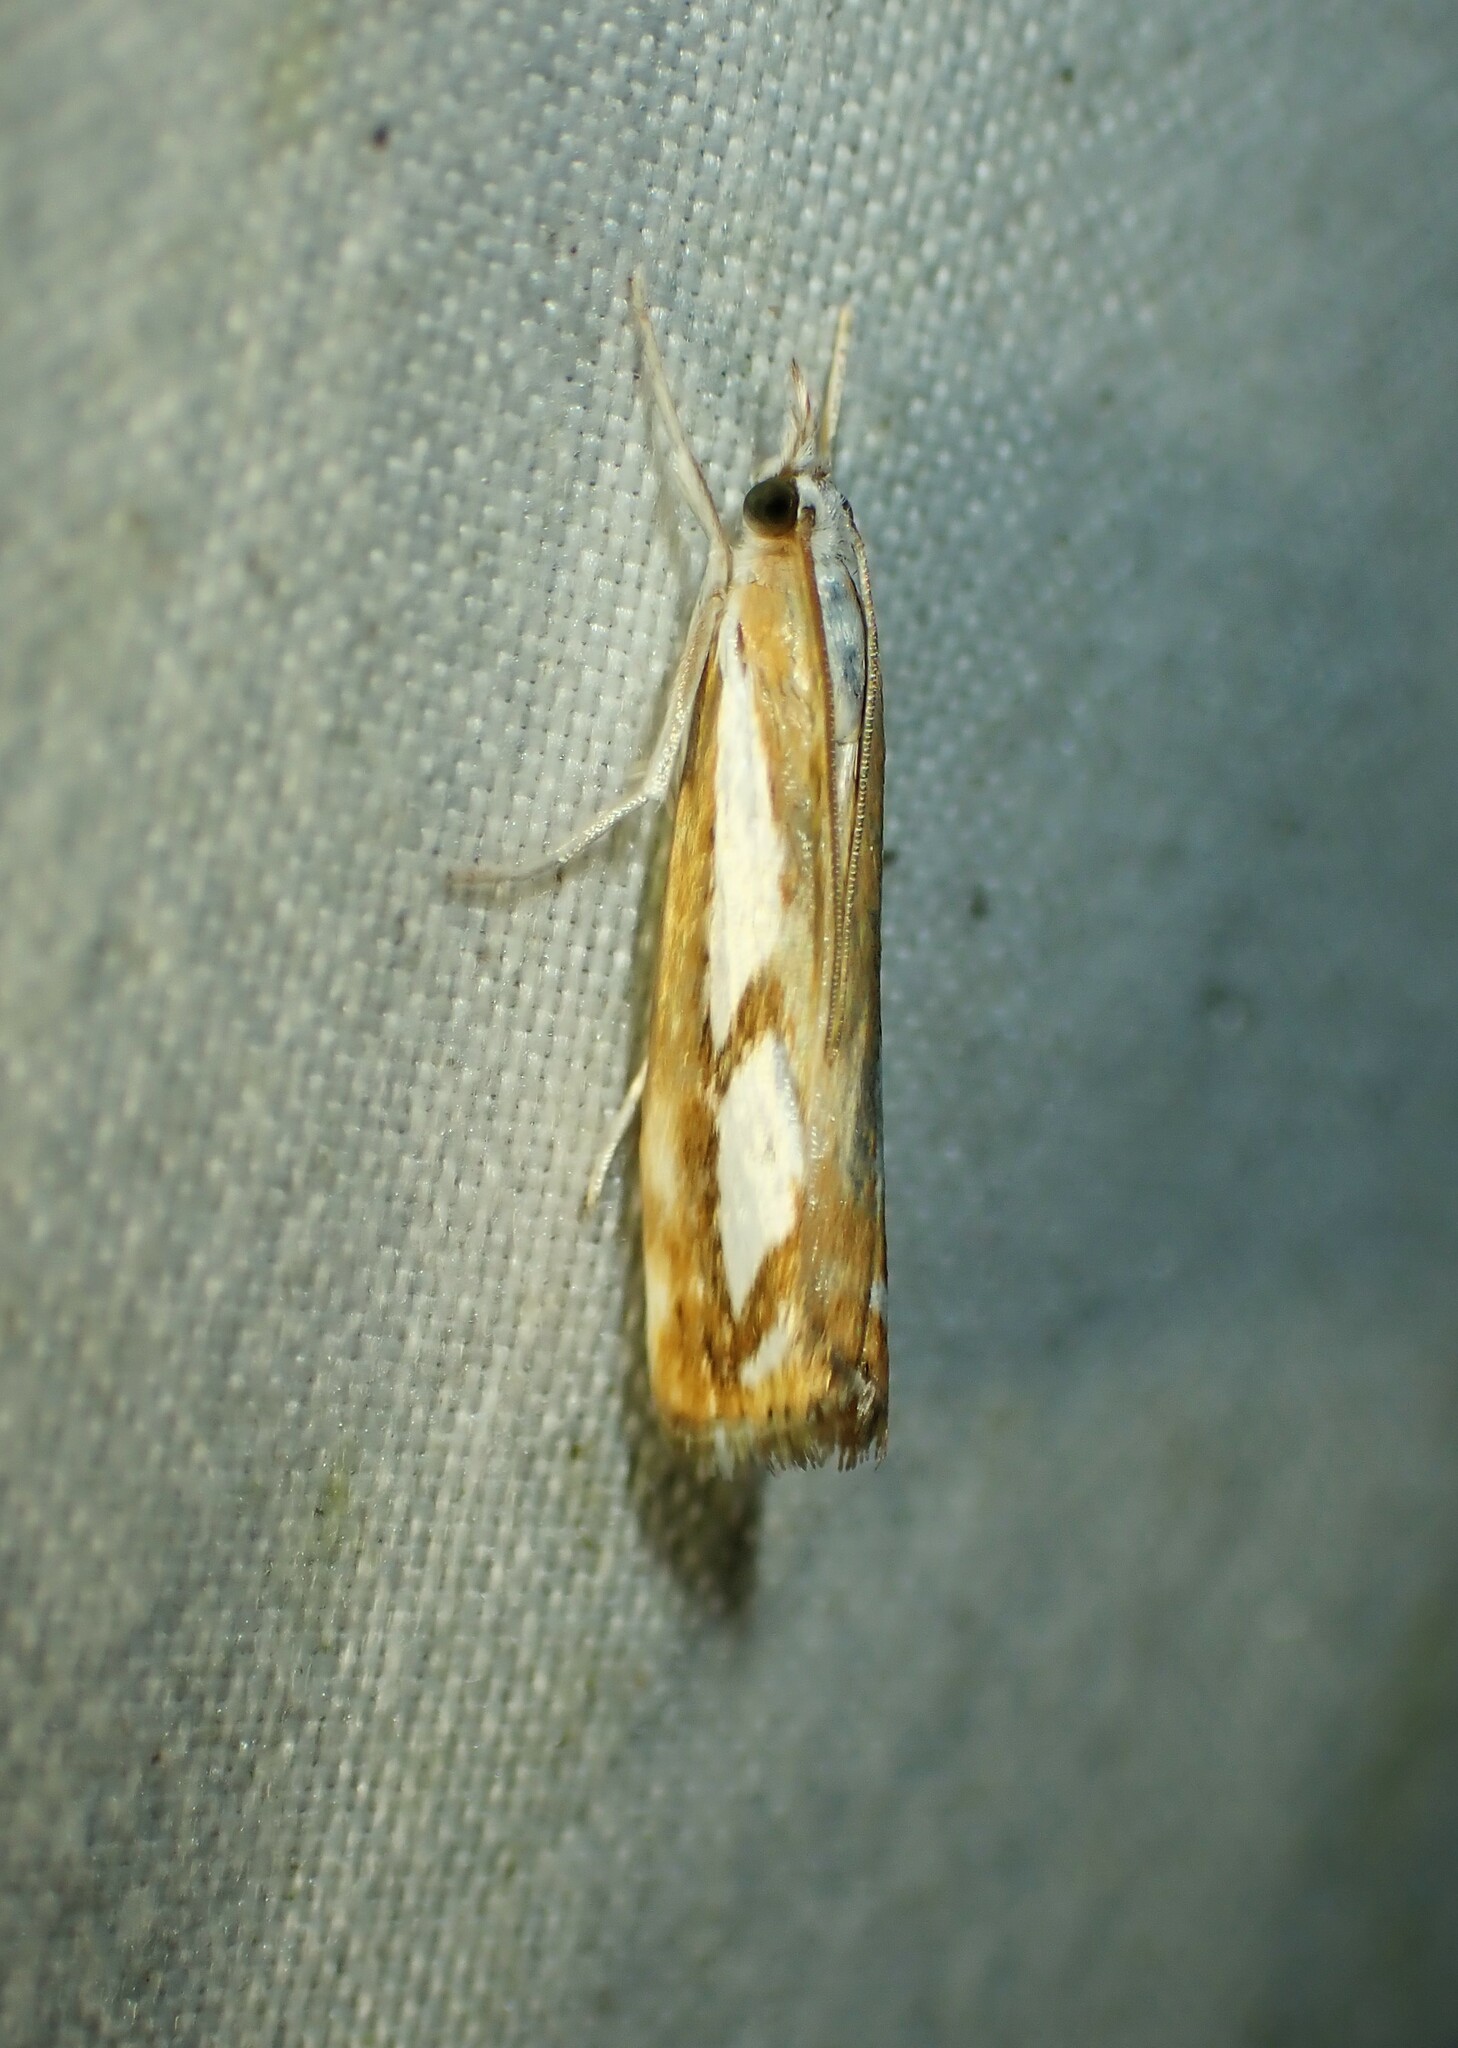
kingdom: Animalia
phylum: Arthropoda
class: Insecta
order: Lepidoptera
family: Crambidae
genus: Catoptria
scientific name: Catoptria latiradiellus
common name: Two-banded catoptria moth
